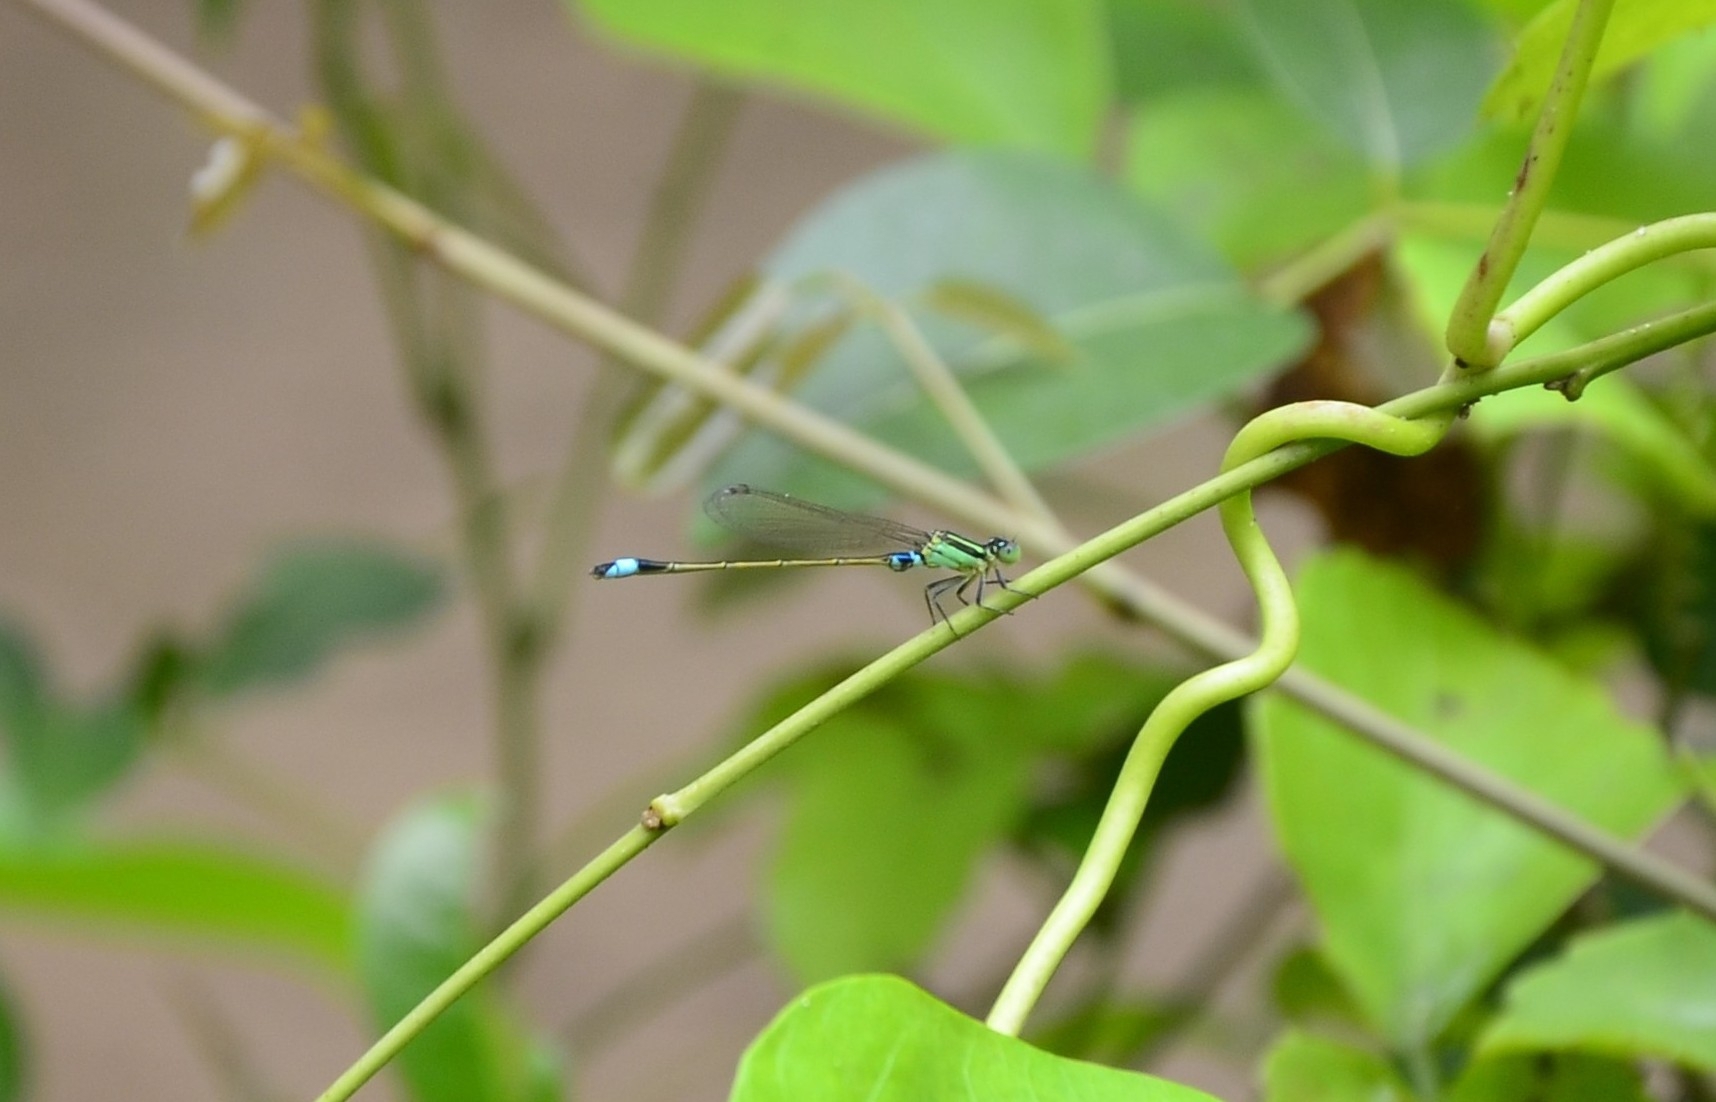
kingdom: Animalia
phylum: Arthropoda
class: Insecta
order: Odonata
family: Coenagrionidae
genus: Ischnura
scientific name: Ischnura senegalensis
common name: Tropical bluetail
